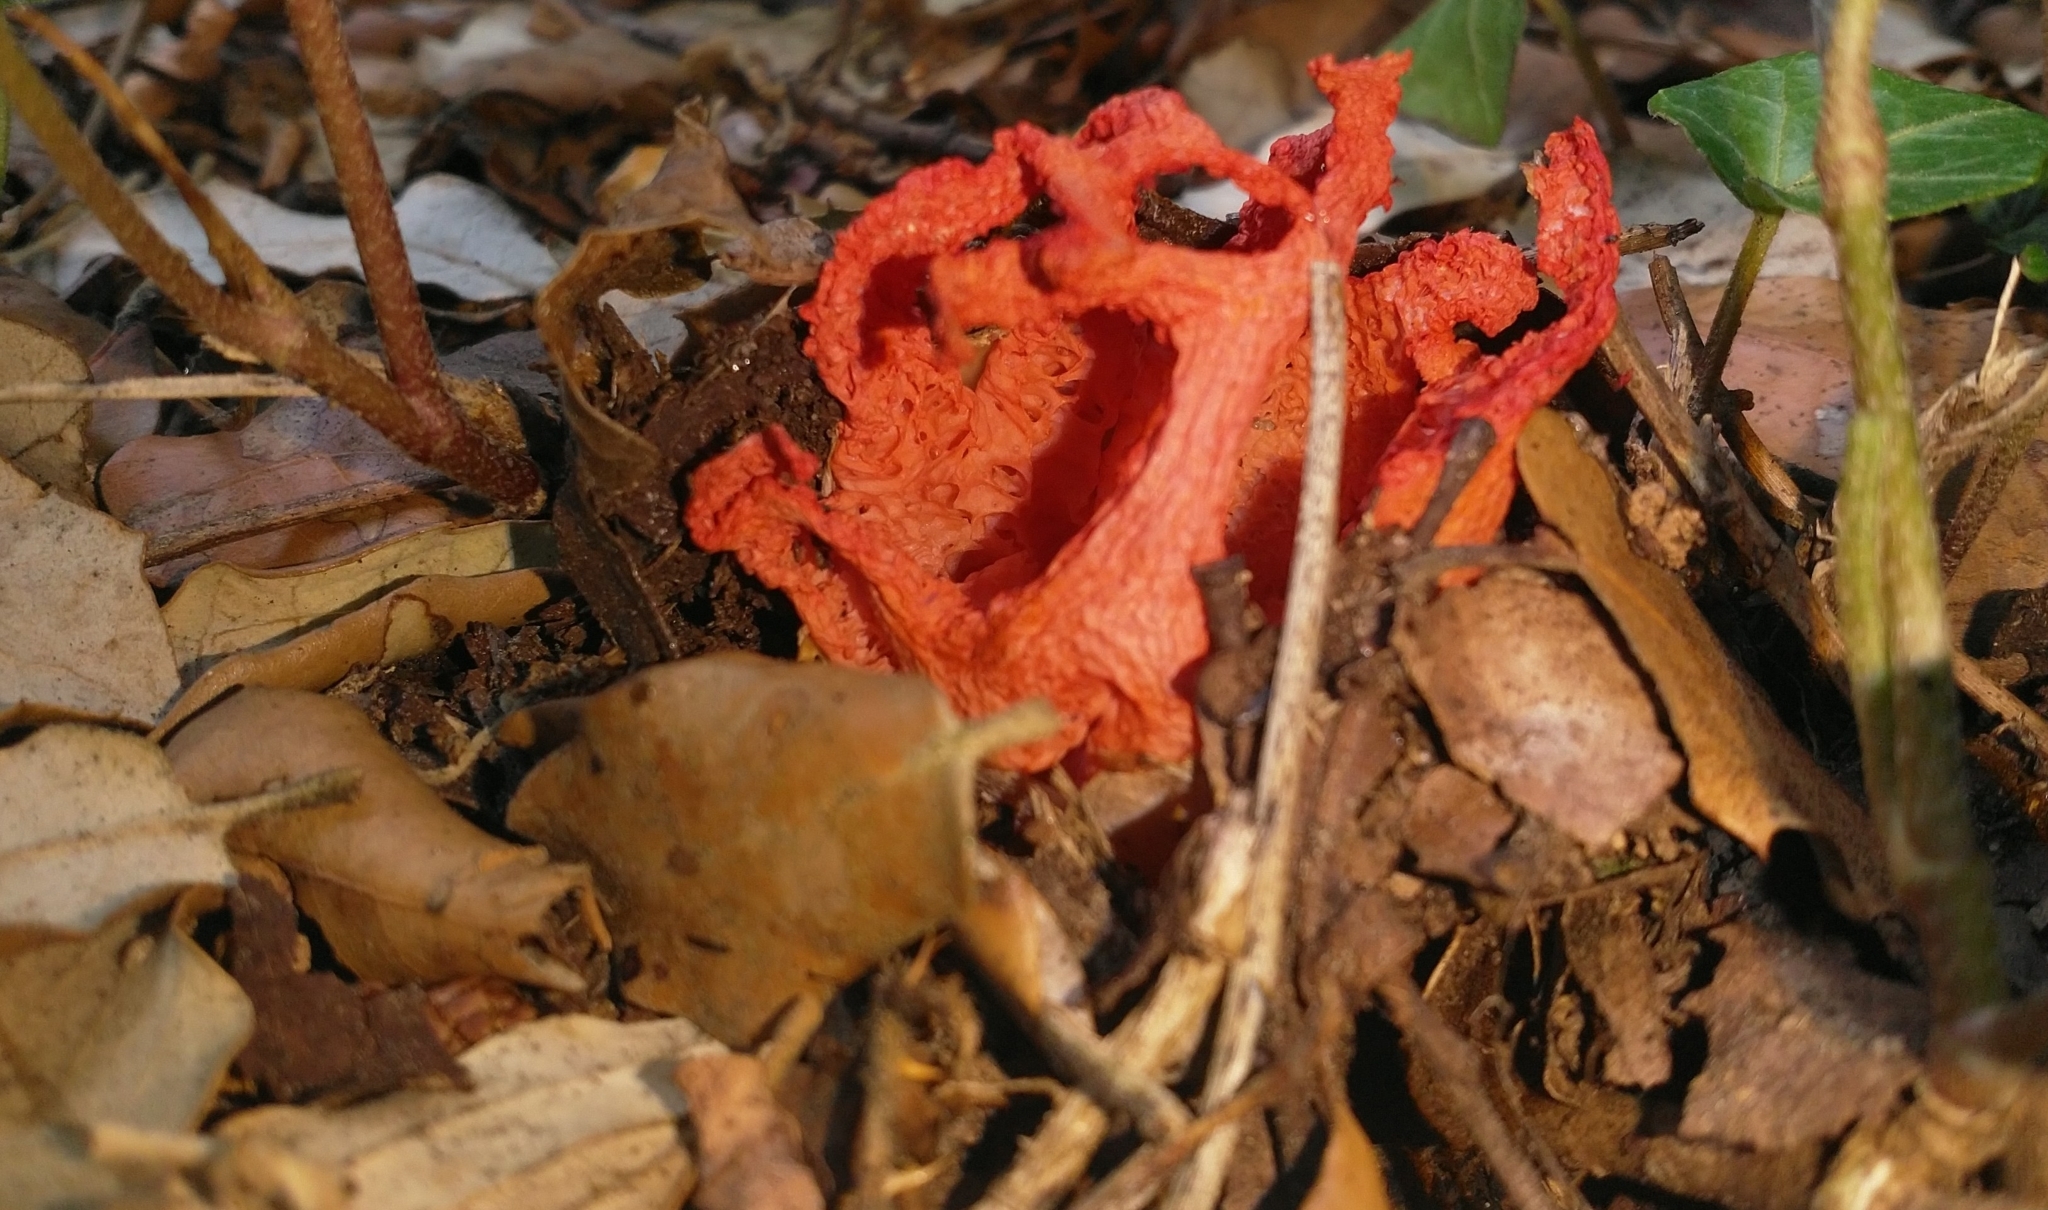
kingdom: Fungi
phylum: Basidiomycota
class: Agaricomycetes
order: Phallales
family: Phallaceae
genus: Clathrus
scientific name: Clathrus ruber
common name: Red cage
